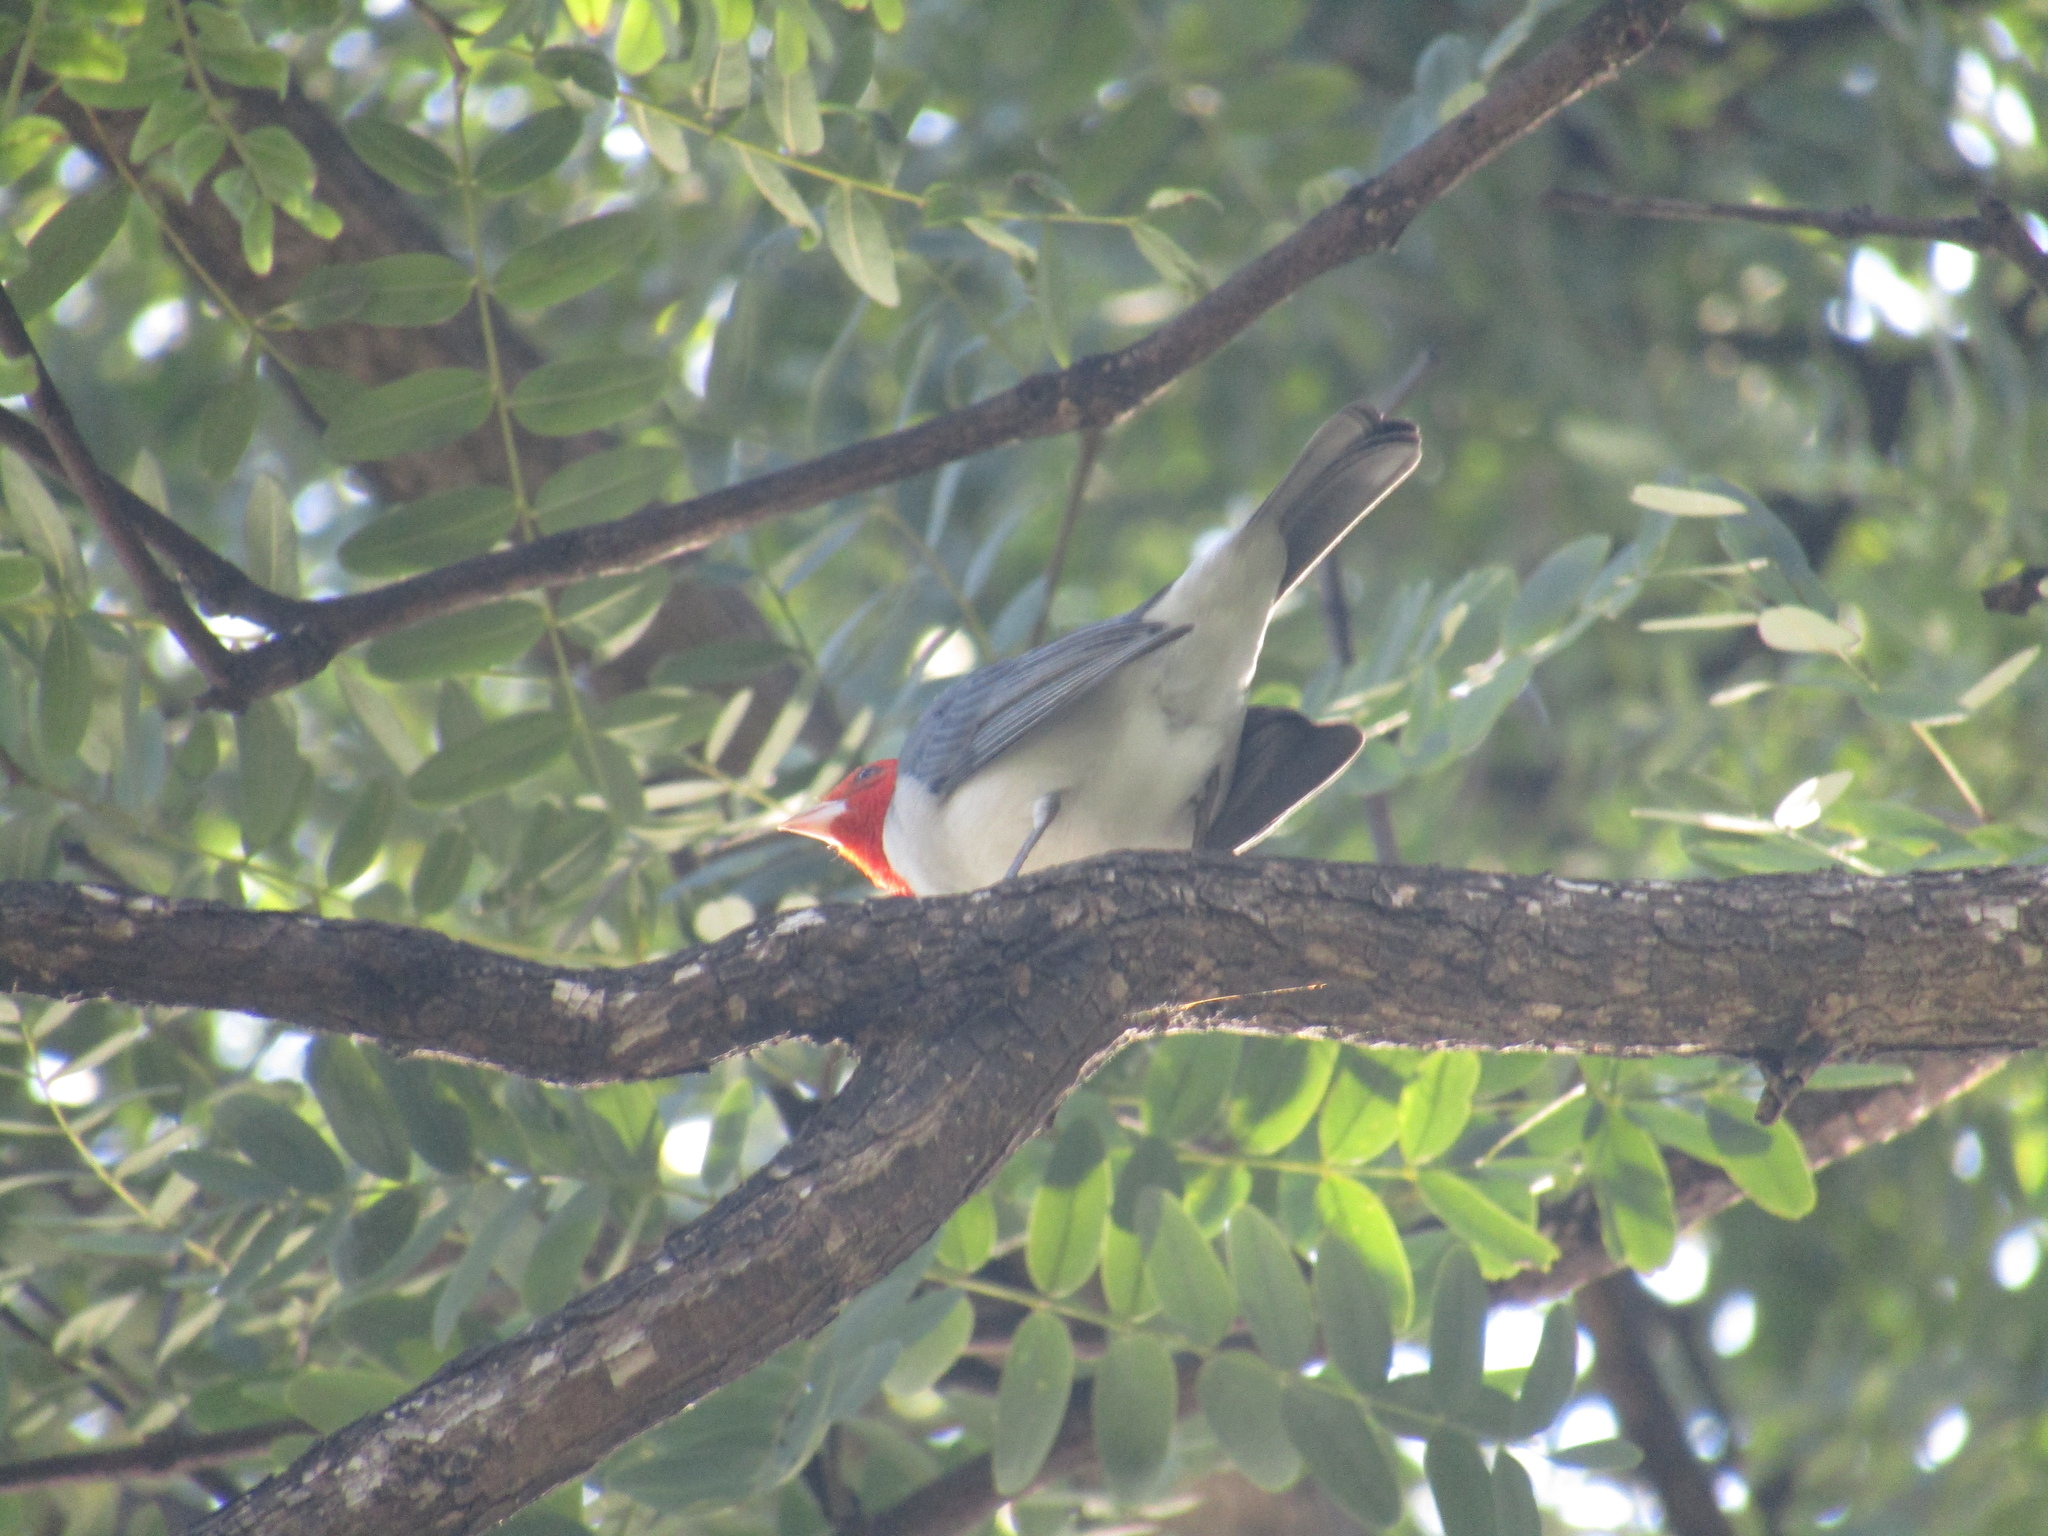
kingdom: Animalia
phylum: Chordata
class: Aves
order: Passeriformes
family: Thraupidae
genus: Paroaria
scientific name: Paroaria coronata
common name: Red-crested cardinal
